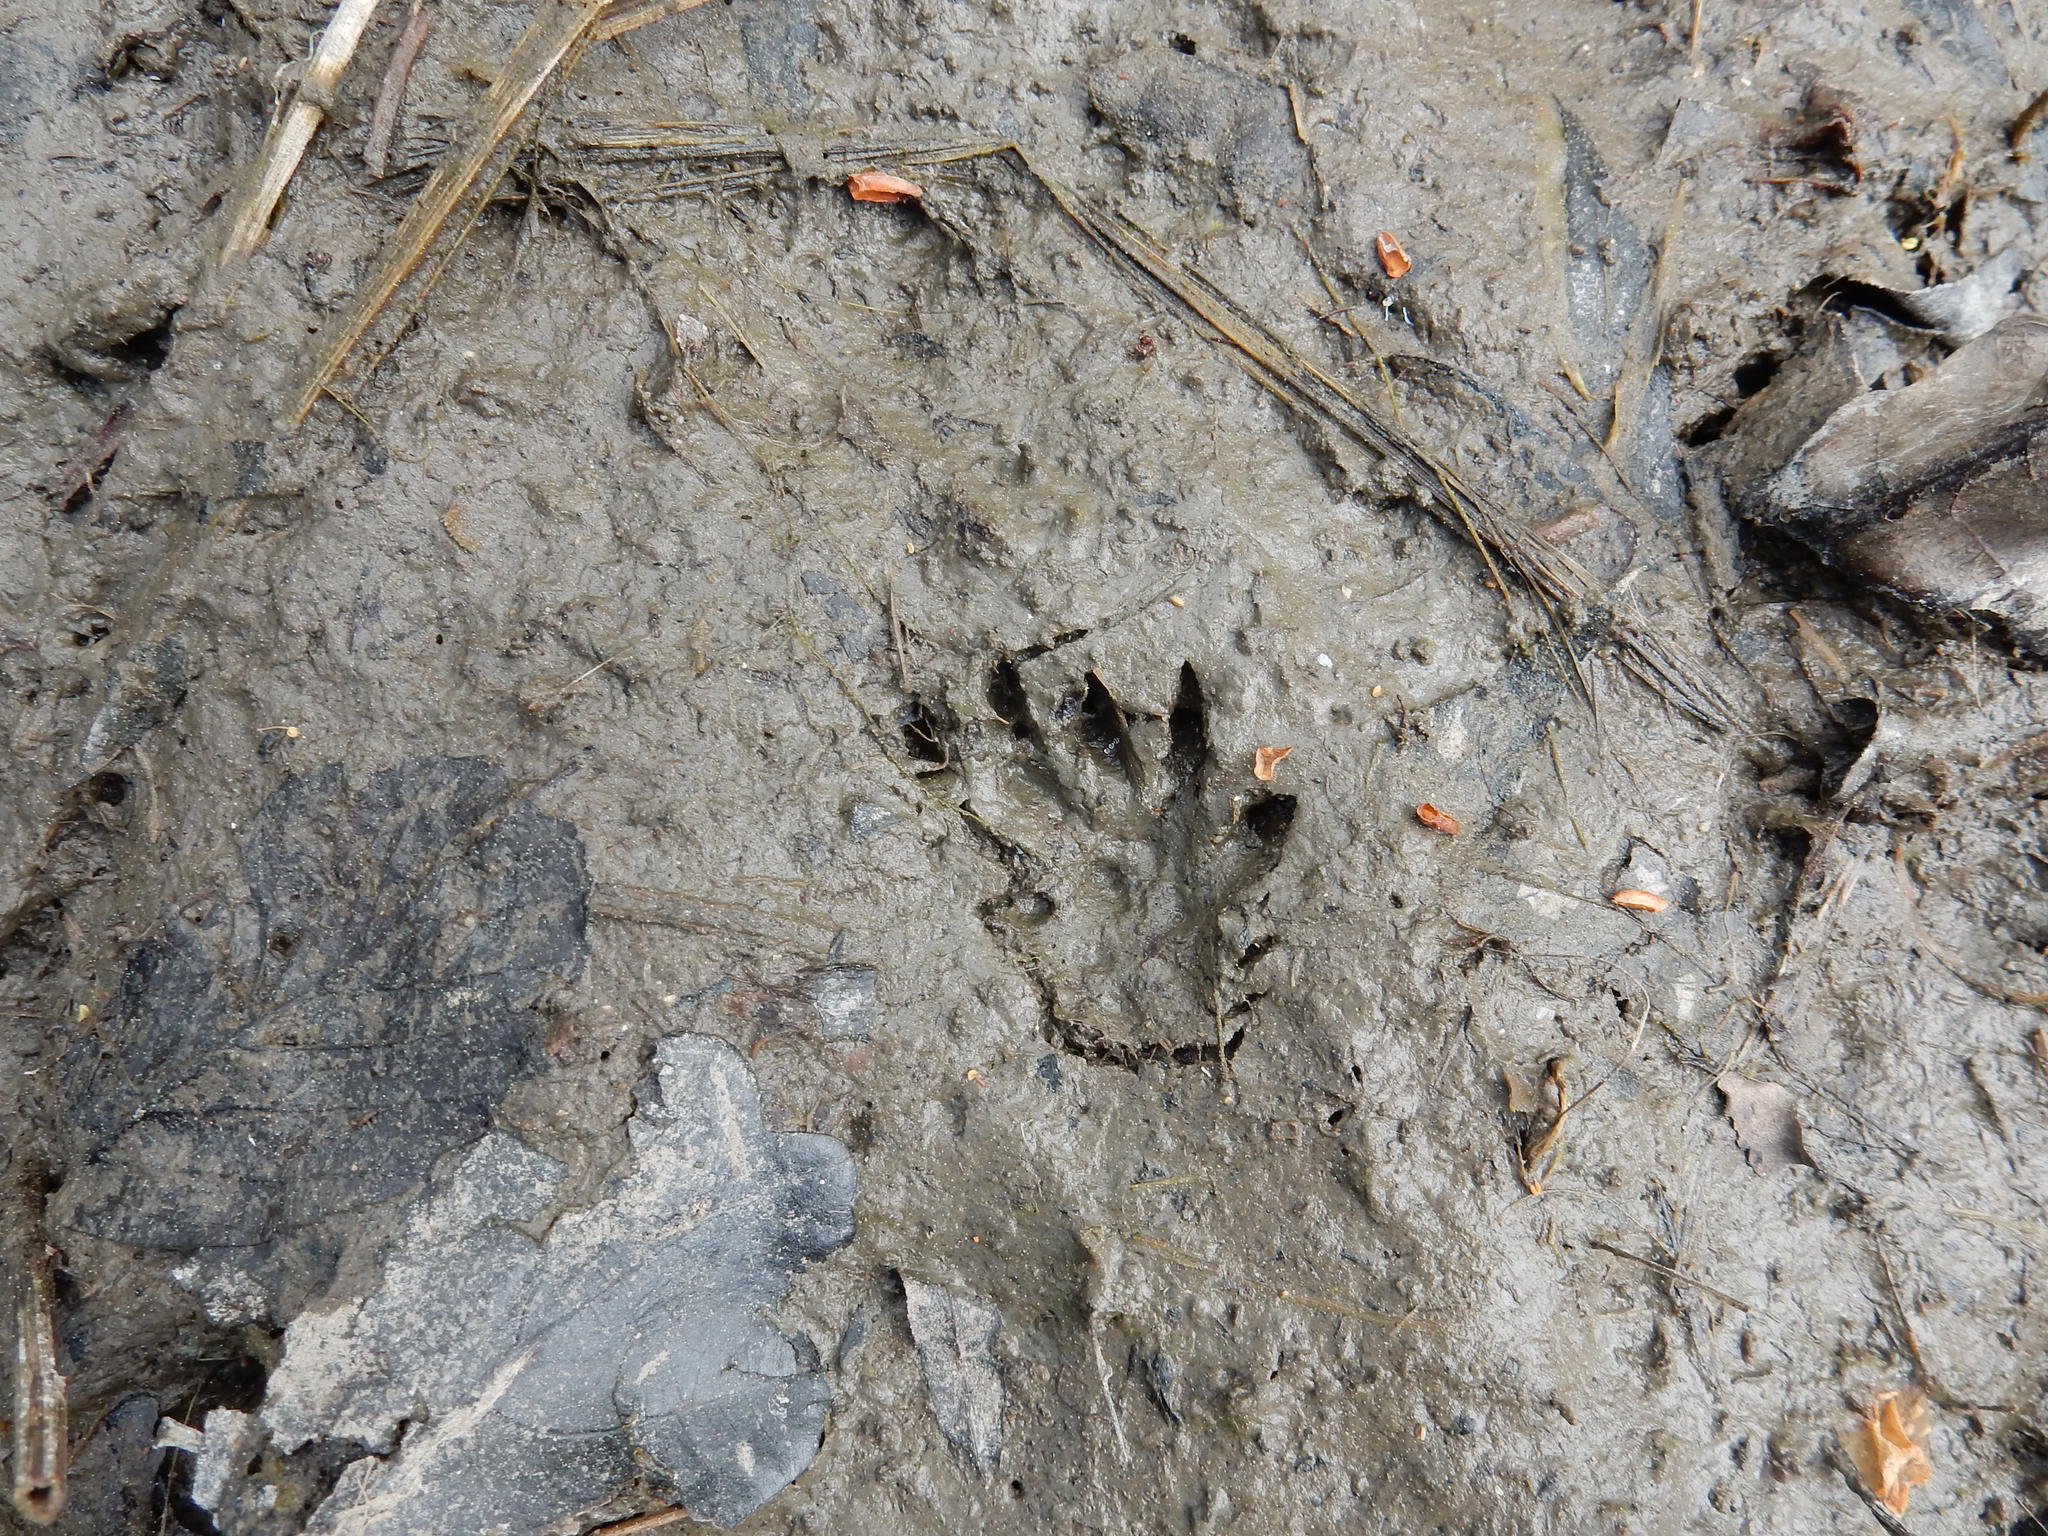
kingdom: Animalia
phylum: Chordata
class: Mammalia
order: Rodentia
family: Myocastoridae
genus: Myocastor
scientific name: Myocastor coypus
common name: Coypu
